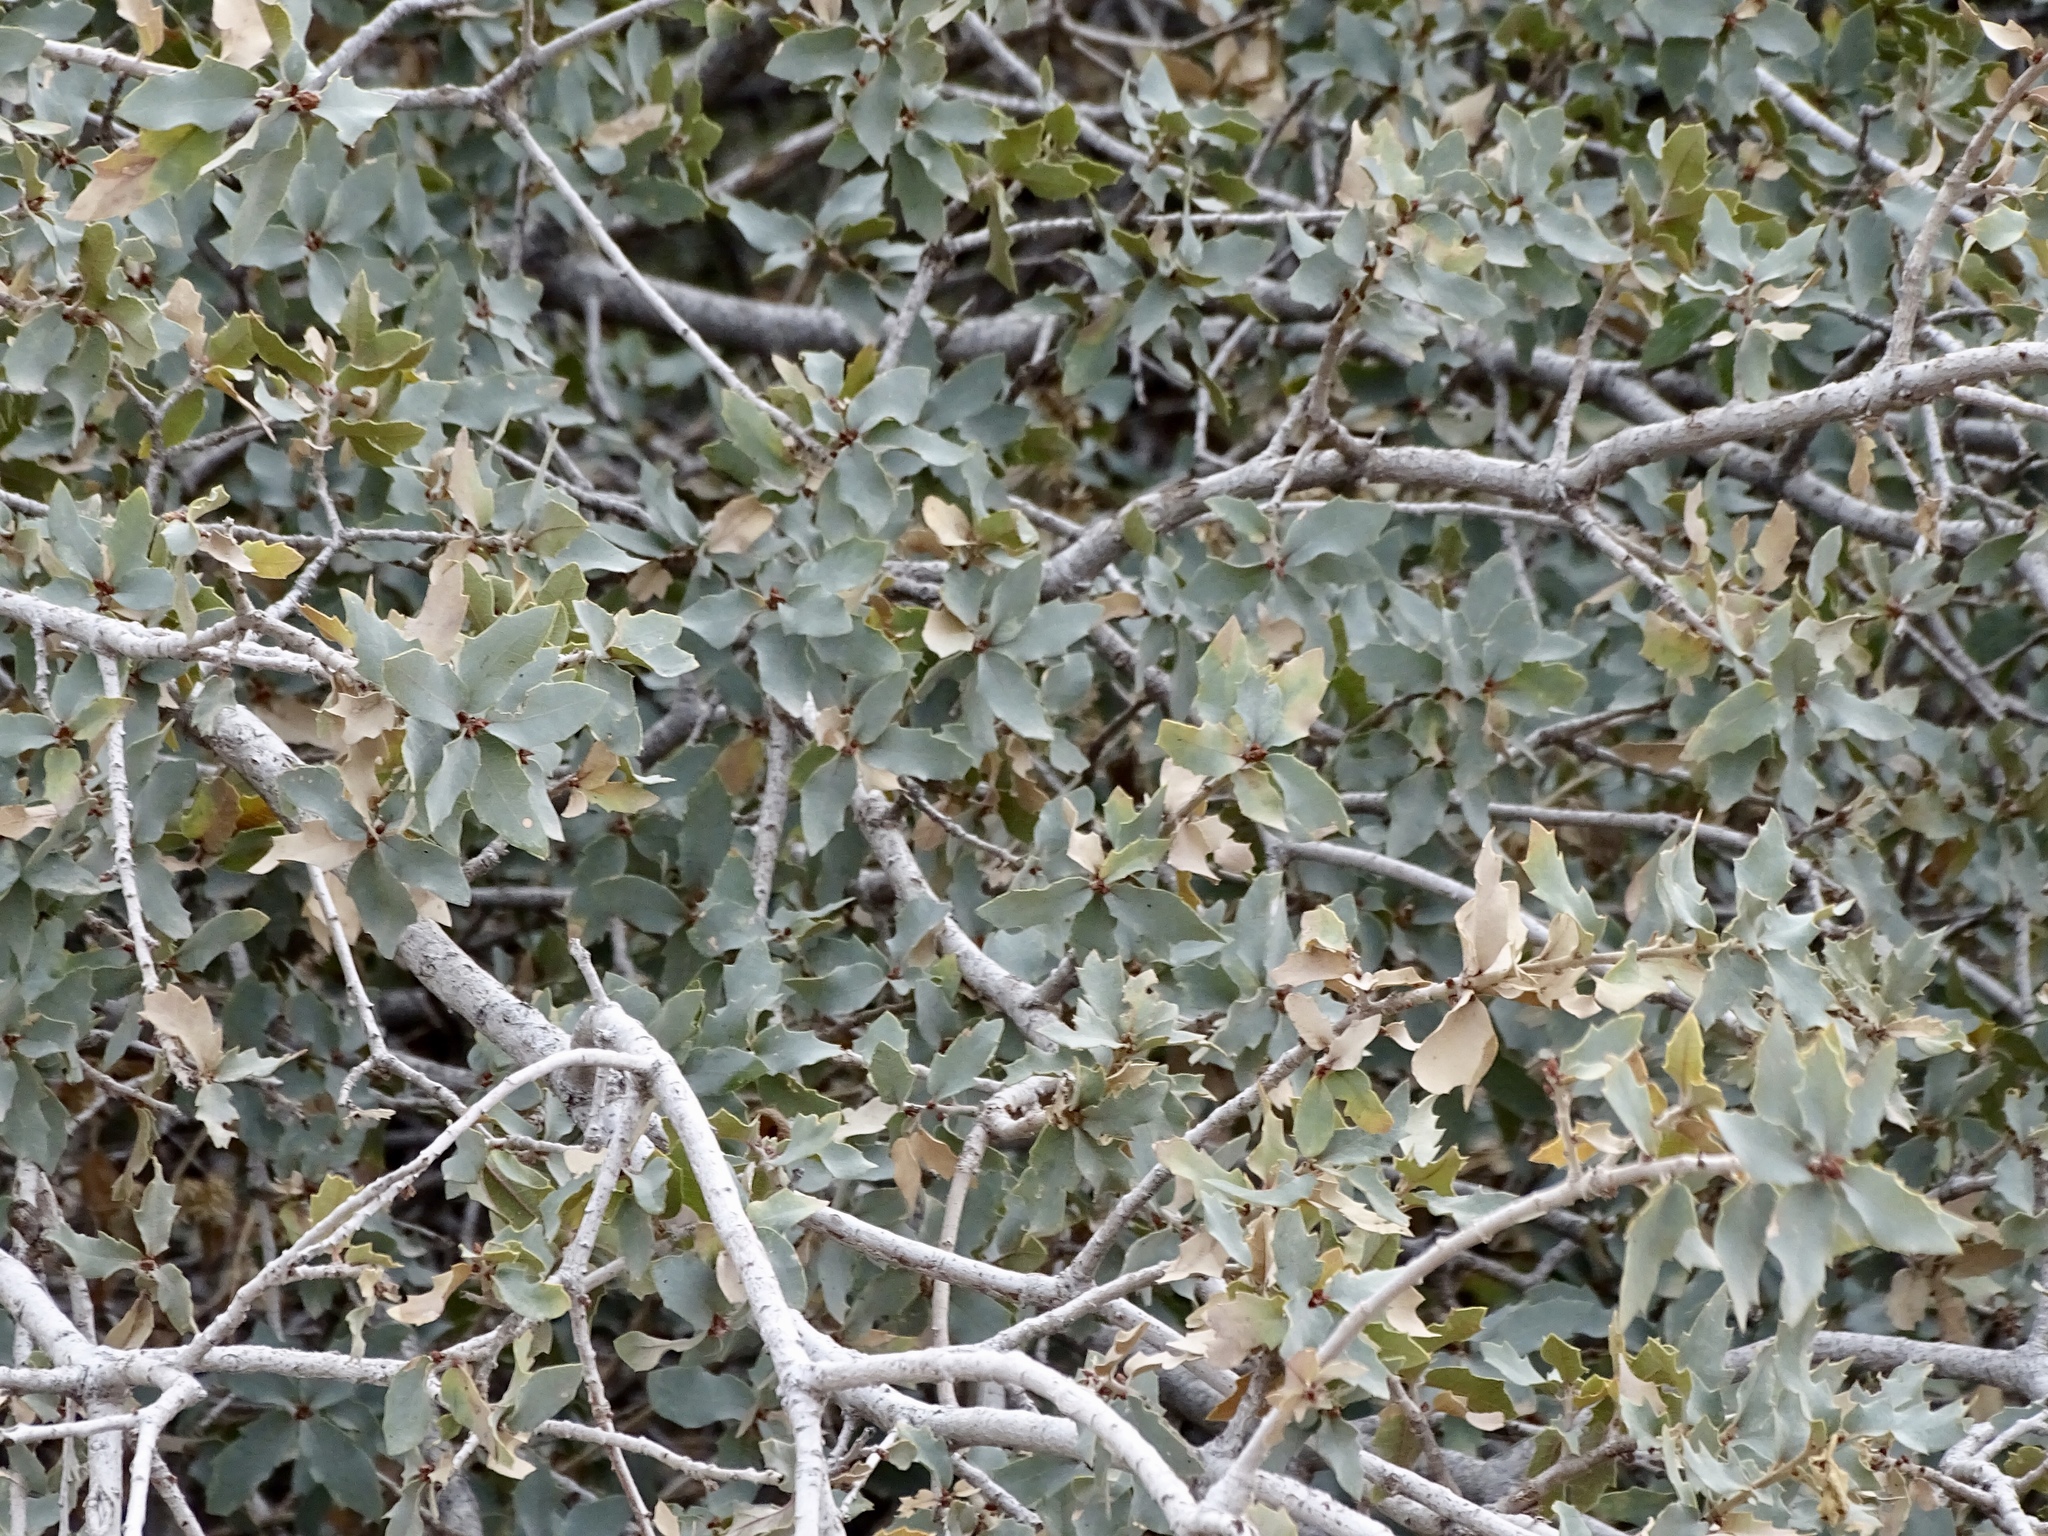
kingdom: Plantae
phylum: Tracheophyta
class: Magnoliopsida
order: Fagales
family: Fagaceae
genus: Quercus
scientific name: Quercus undulata
